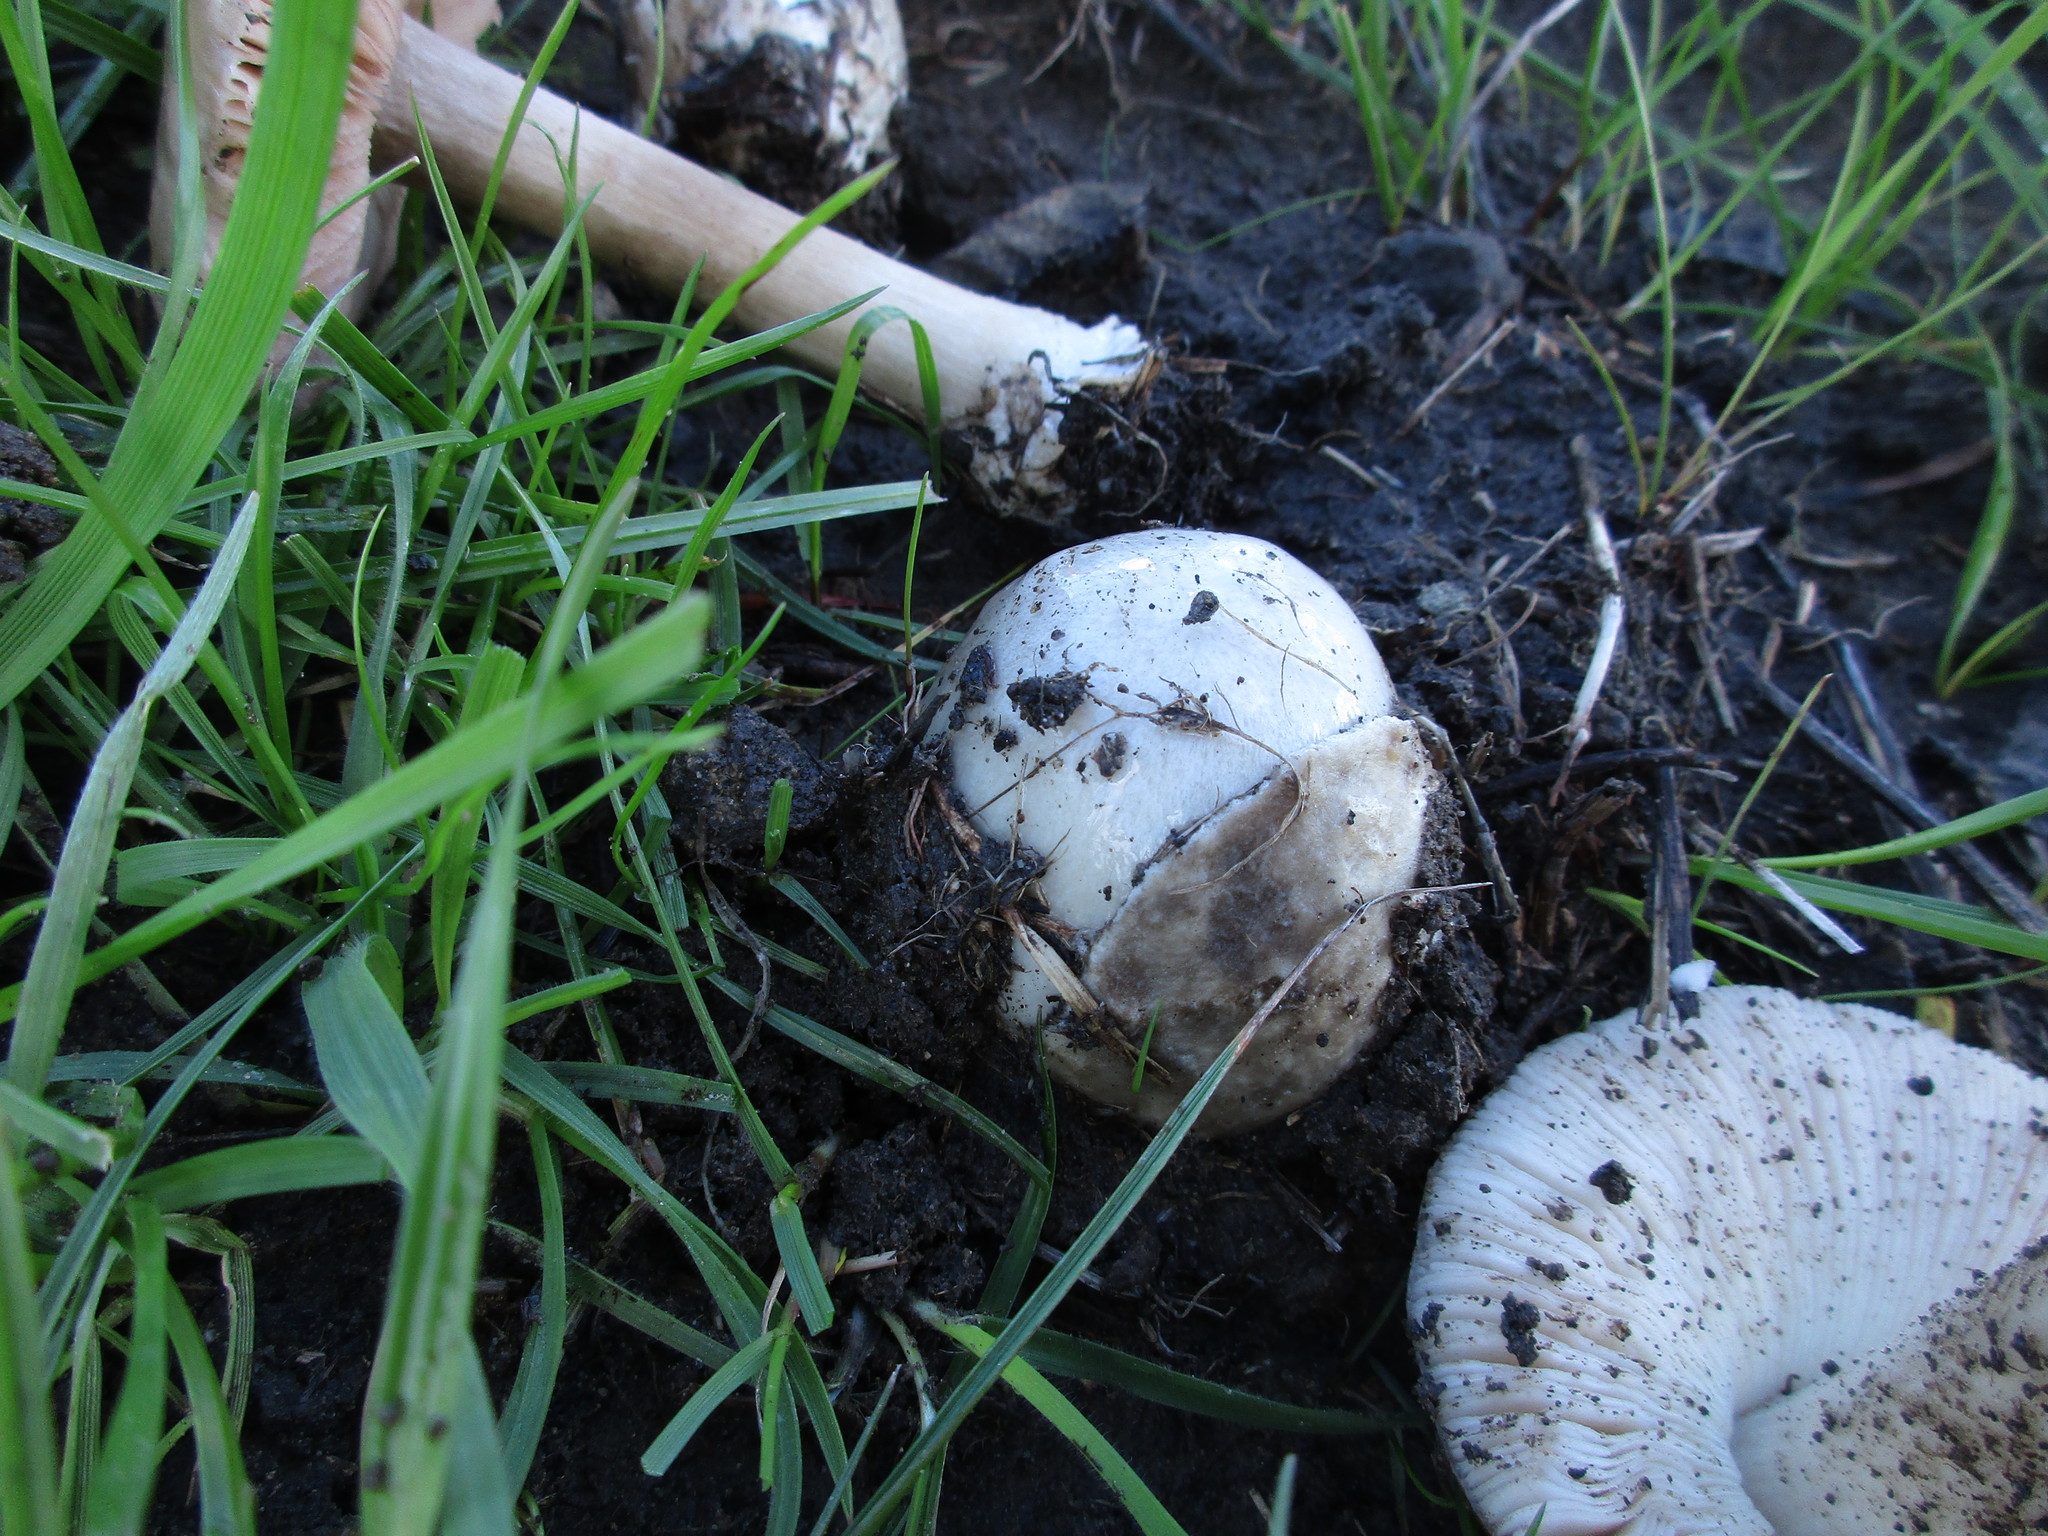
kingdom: Fungi
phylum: Basidiomycota
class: Agaricomycetes
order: Agaricales
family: Pluteaceae
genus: Volvopluteus
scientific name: Volvopluteus gloiocephalus
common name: Stubble rosegill
